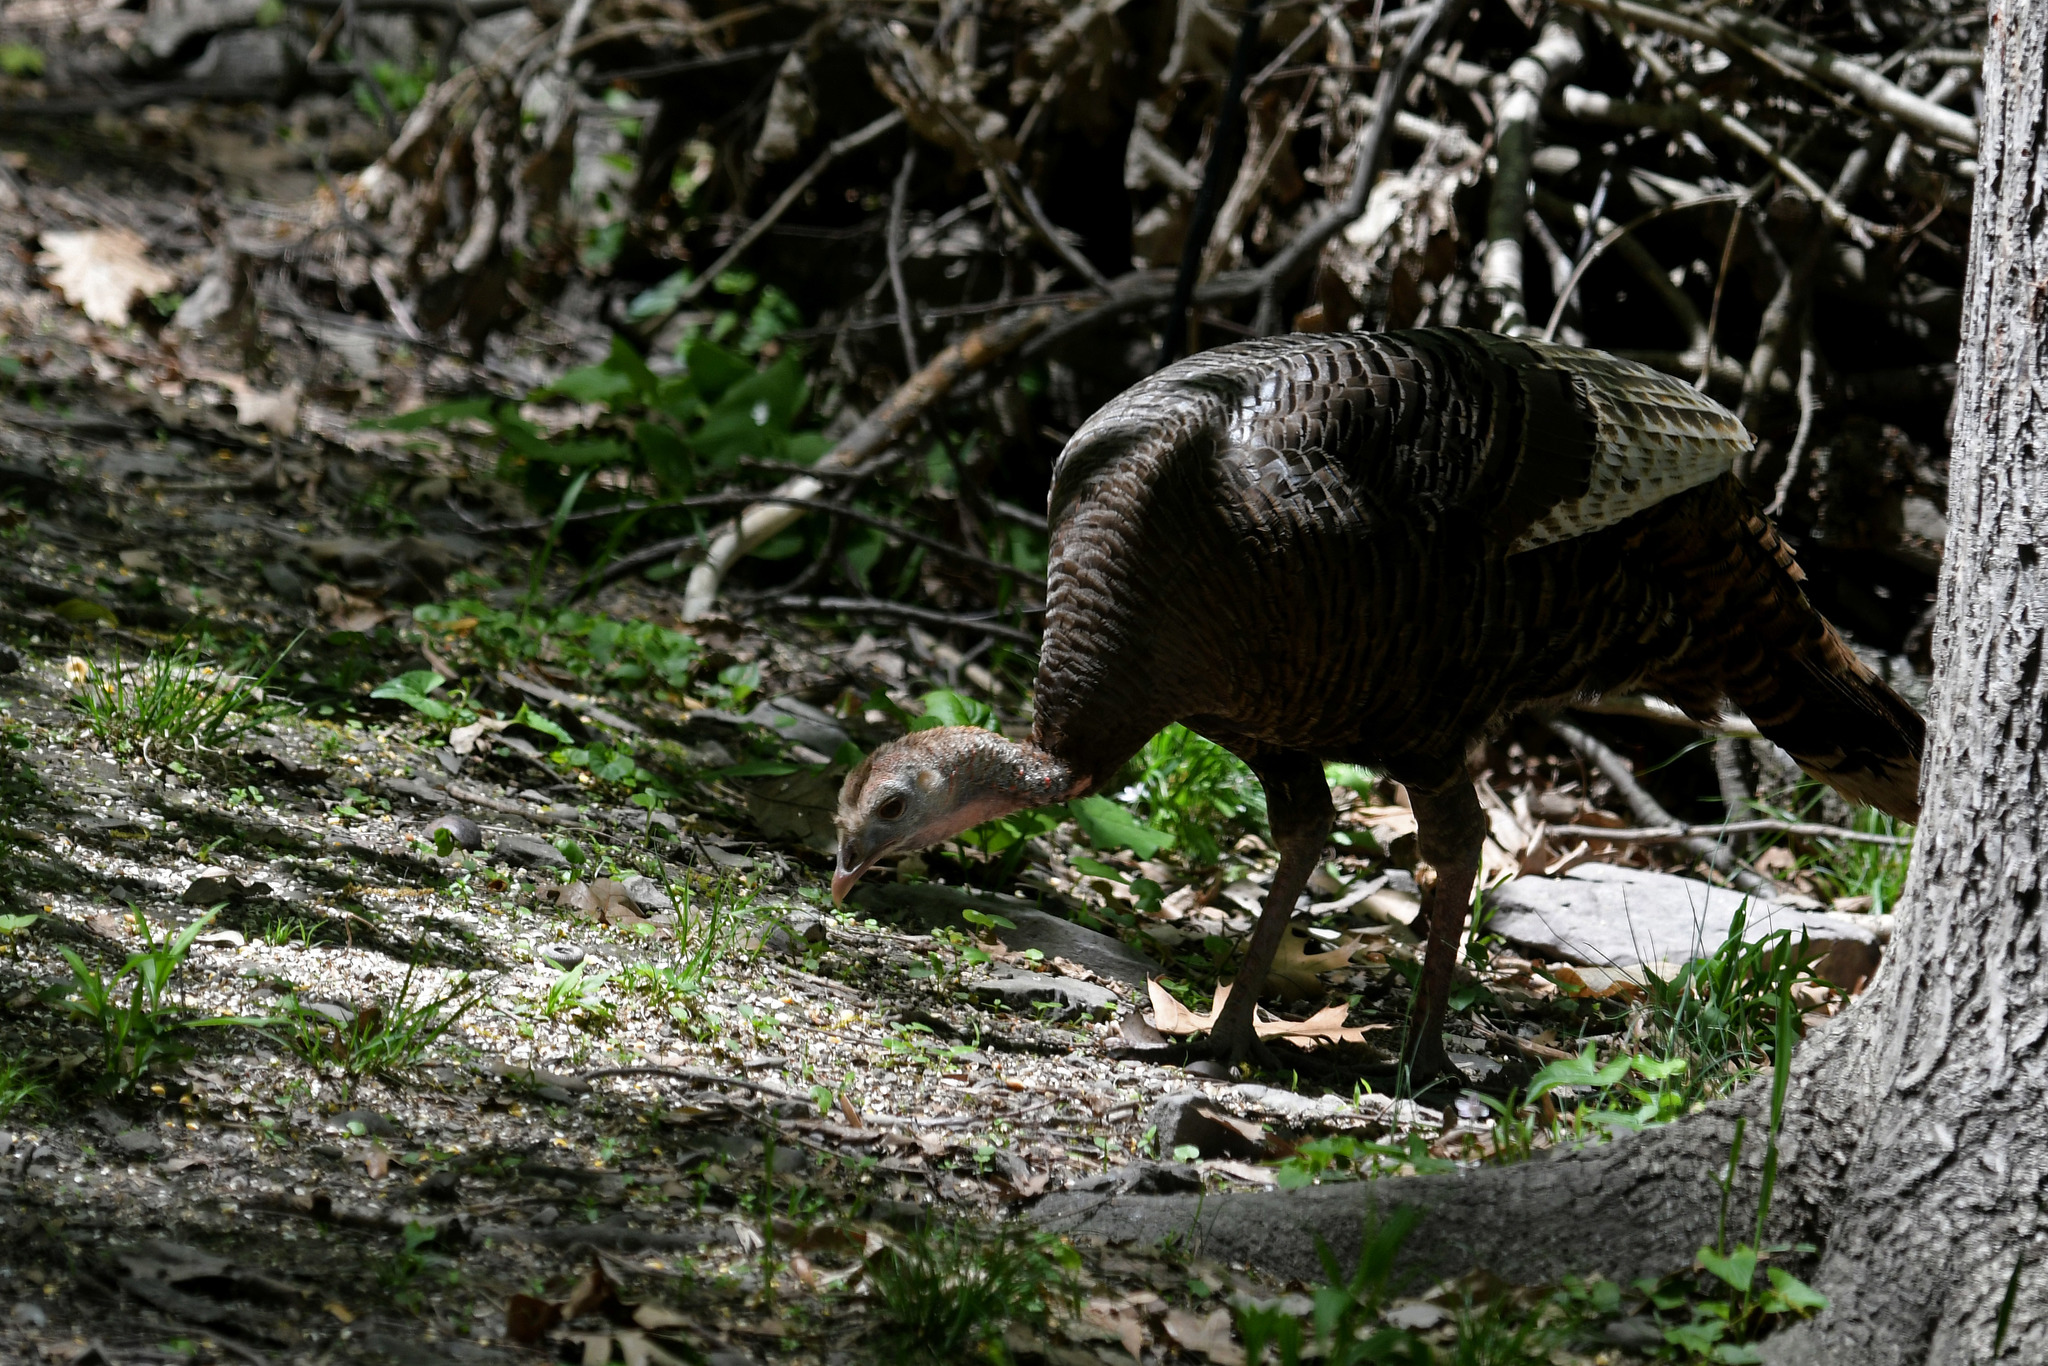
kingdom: Animalia
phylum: Chordata
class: Aves
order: Galliformes
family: Phasianidae
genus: Meleagris
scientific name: Meleagris gallopavo
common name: Wild turkey
